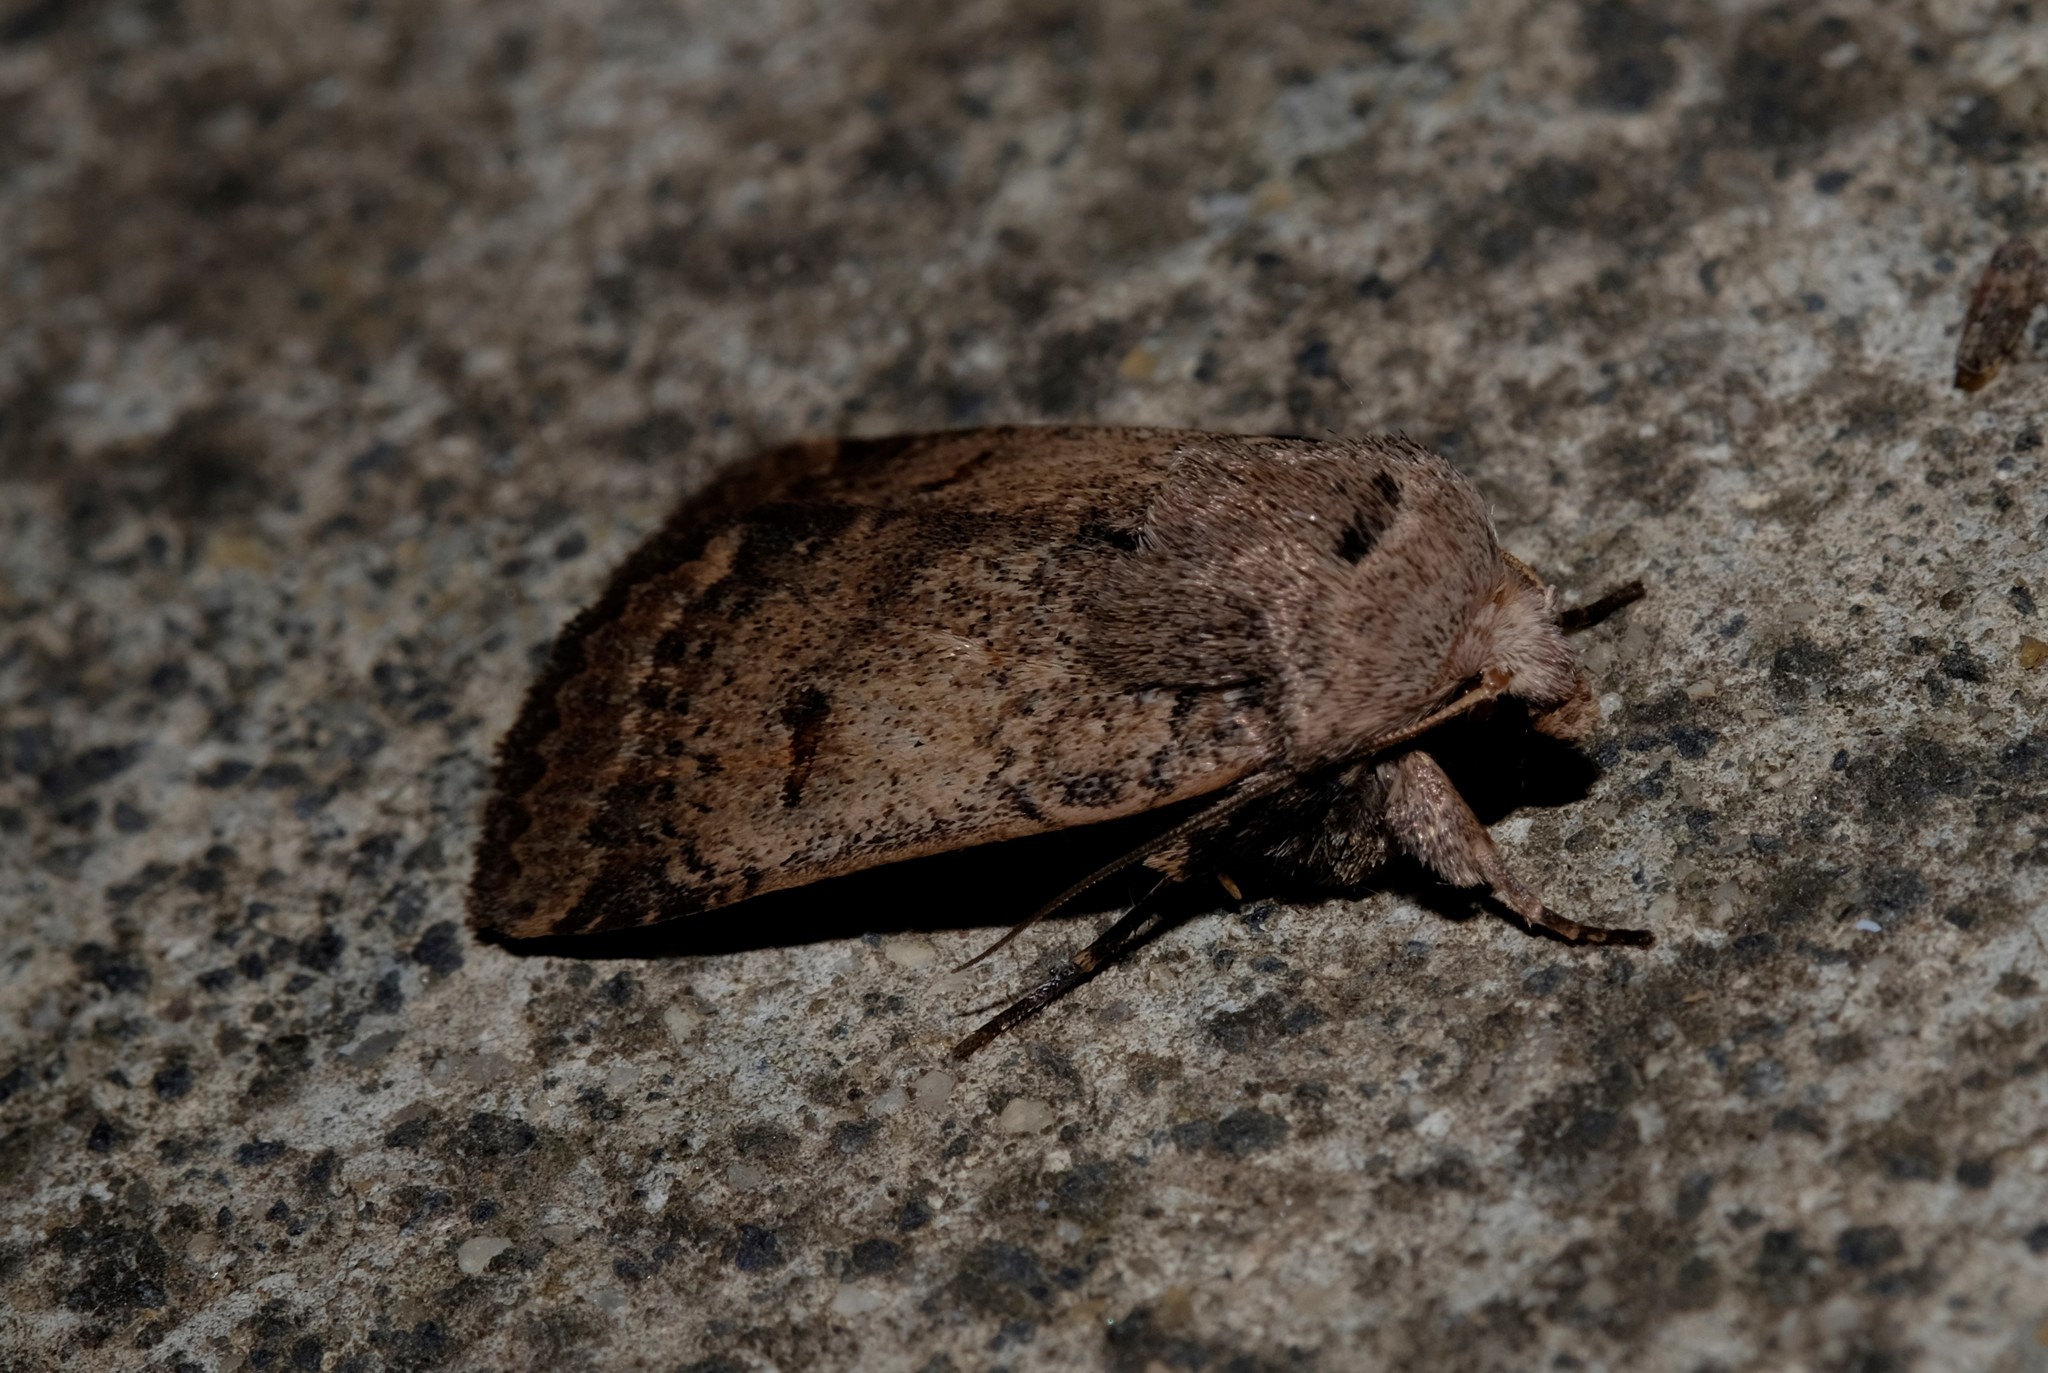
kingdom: Animalia
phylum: Arthropoda
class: Insecta
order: Lepidoptera
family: Noctuidae
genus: Proteuxoa
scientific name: Proteuxoa hypochalchis
